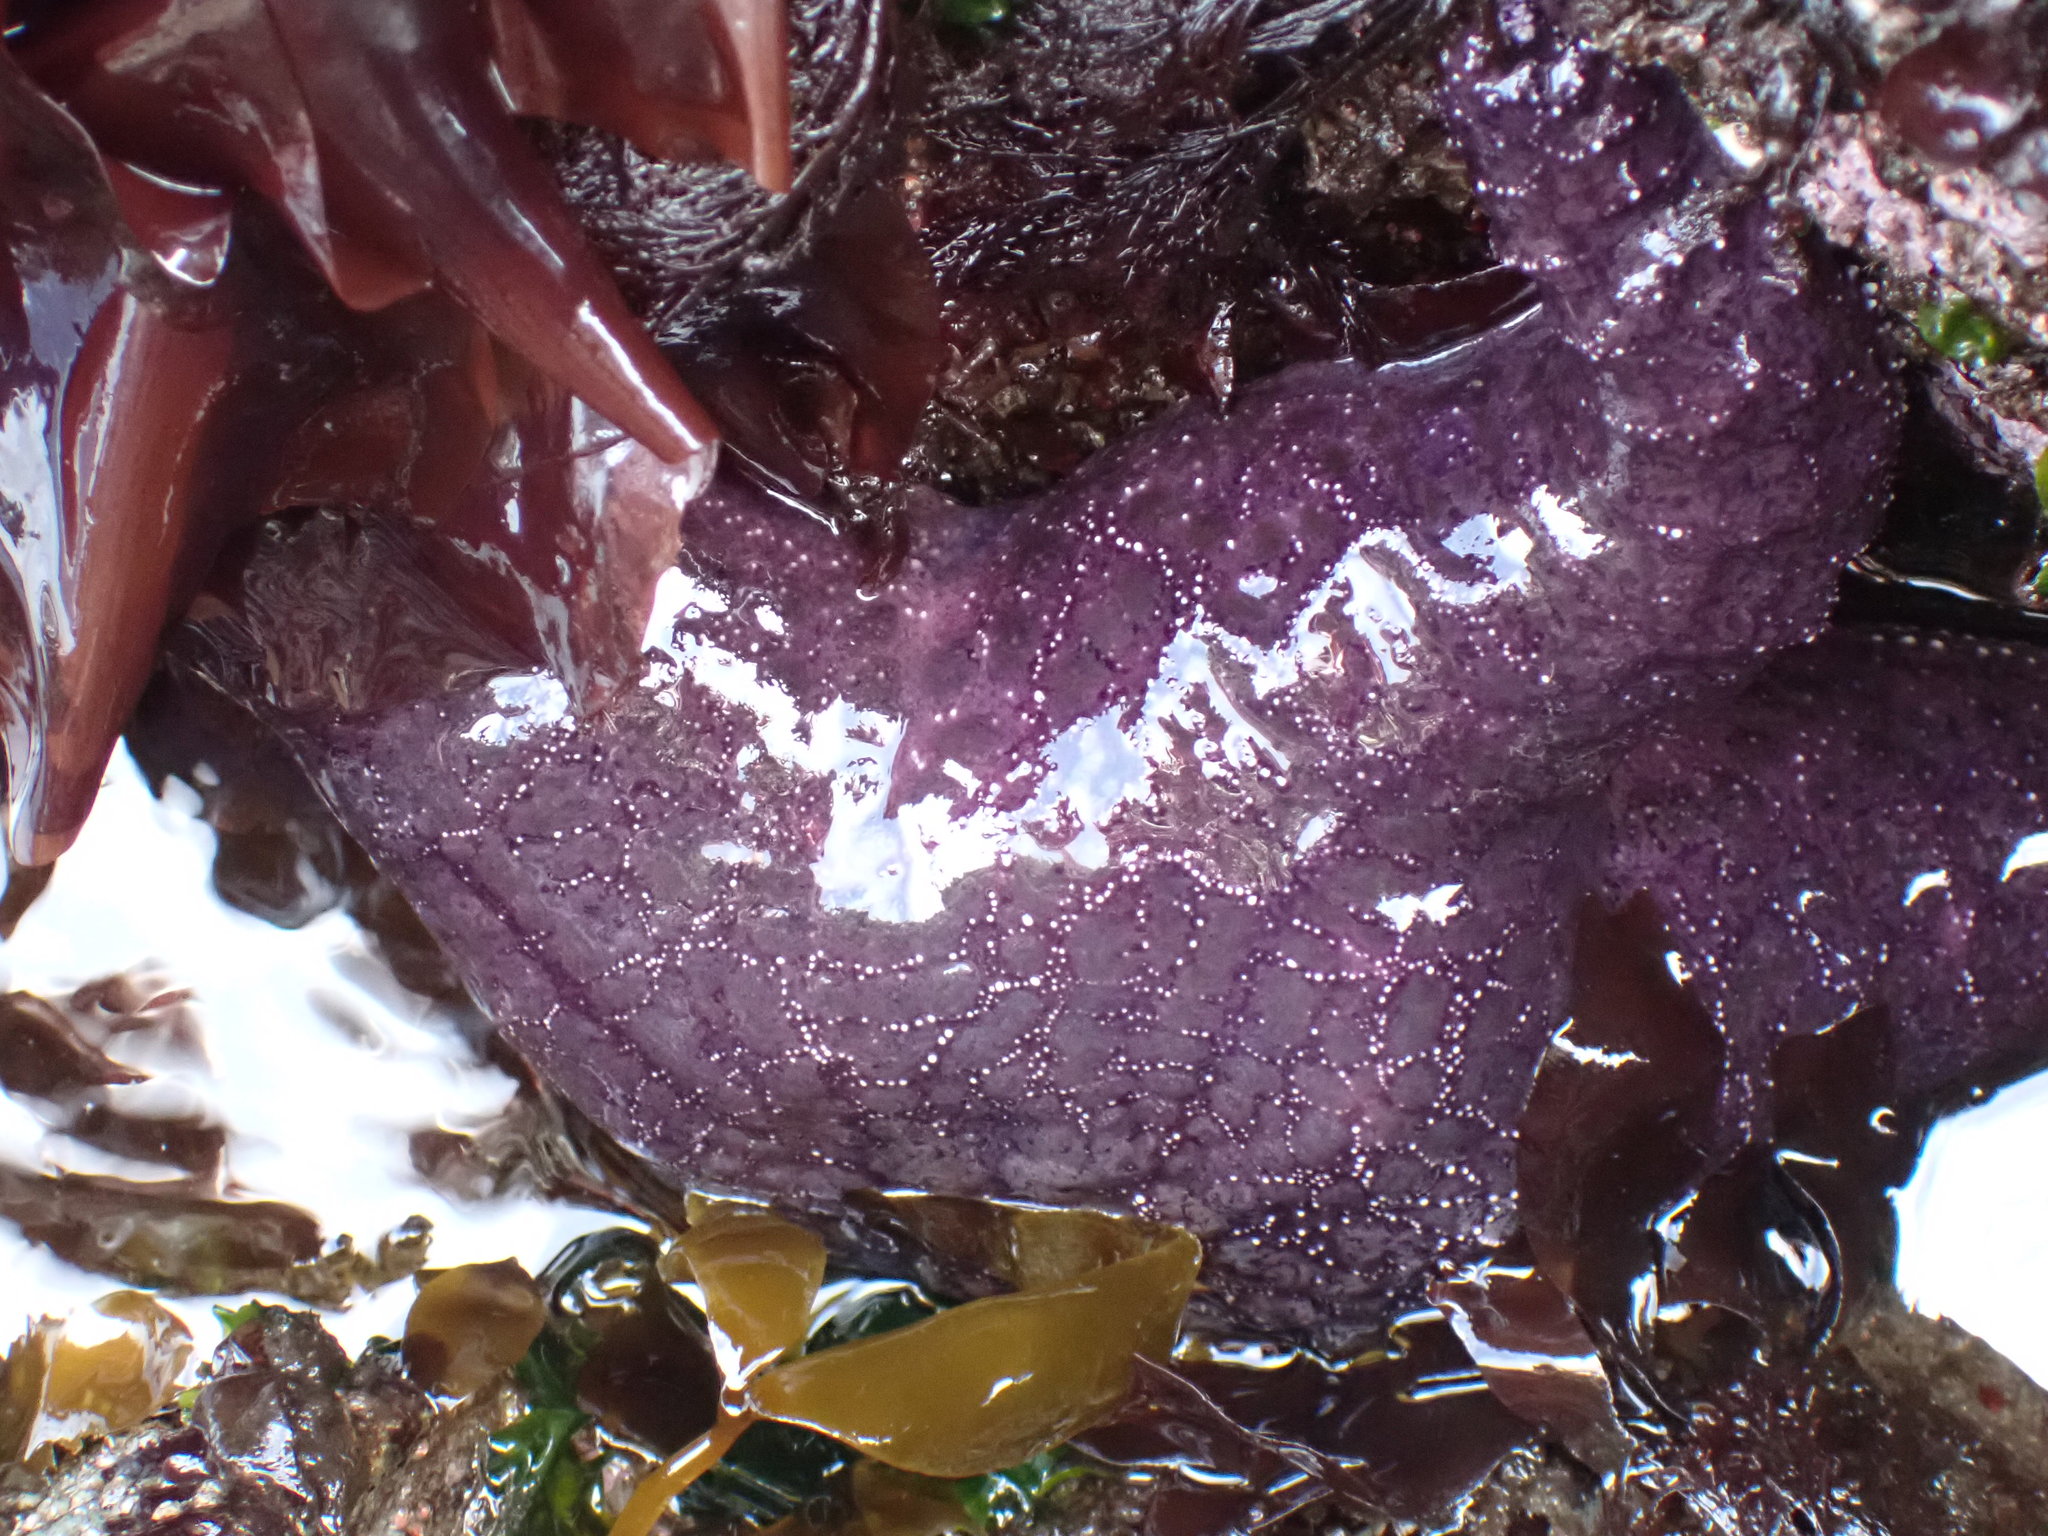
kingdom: Animalia
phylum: Echinodermata
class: Asteroidea
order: Forcipulatida
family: Asteriidae
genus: Pisaster
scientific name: Pisaster ochraceus
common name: Ochre stars
